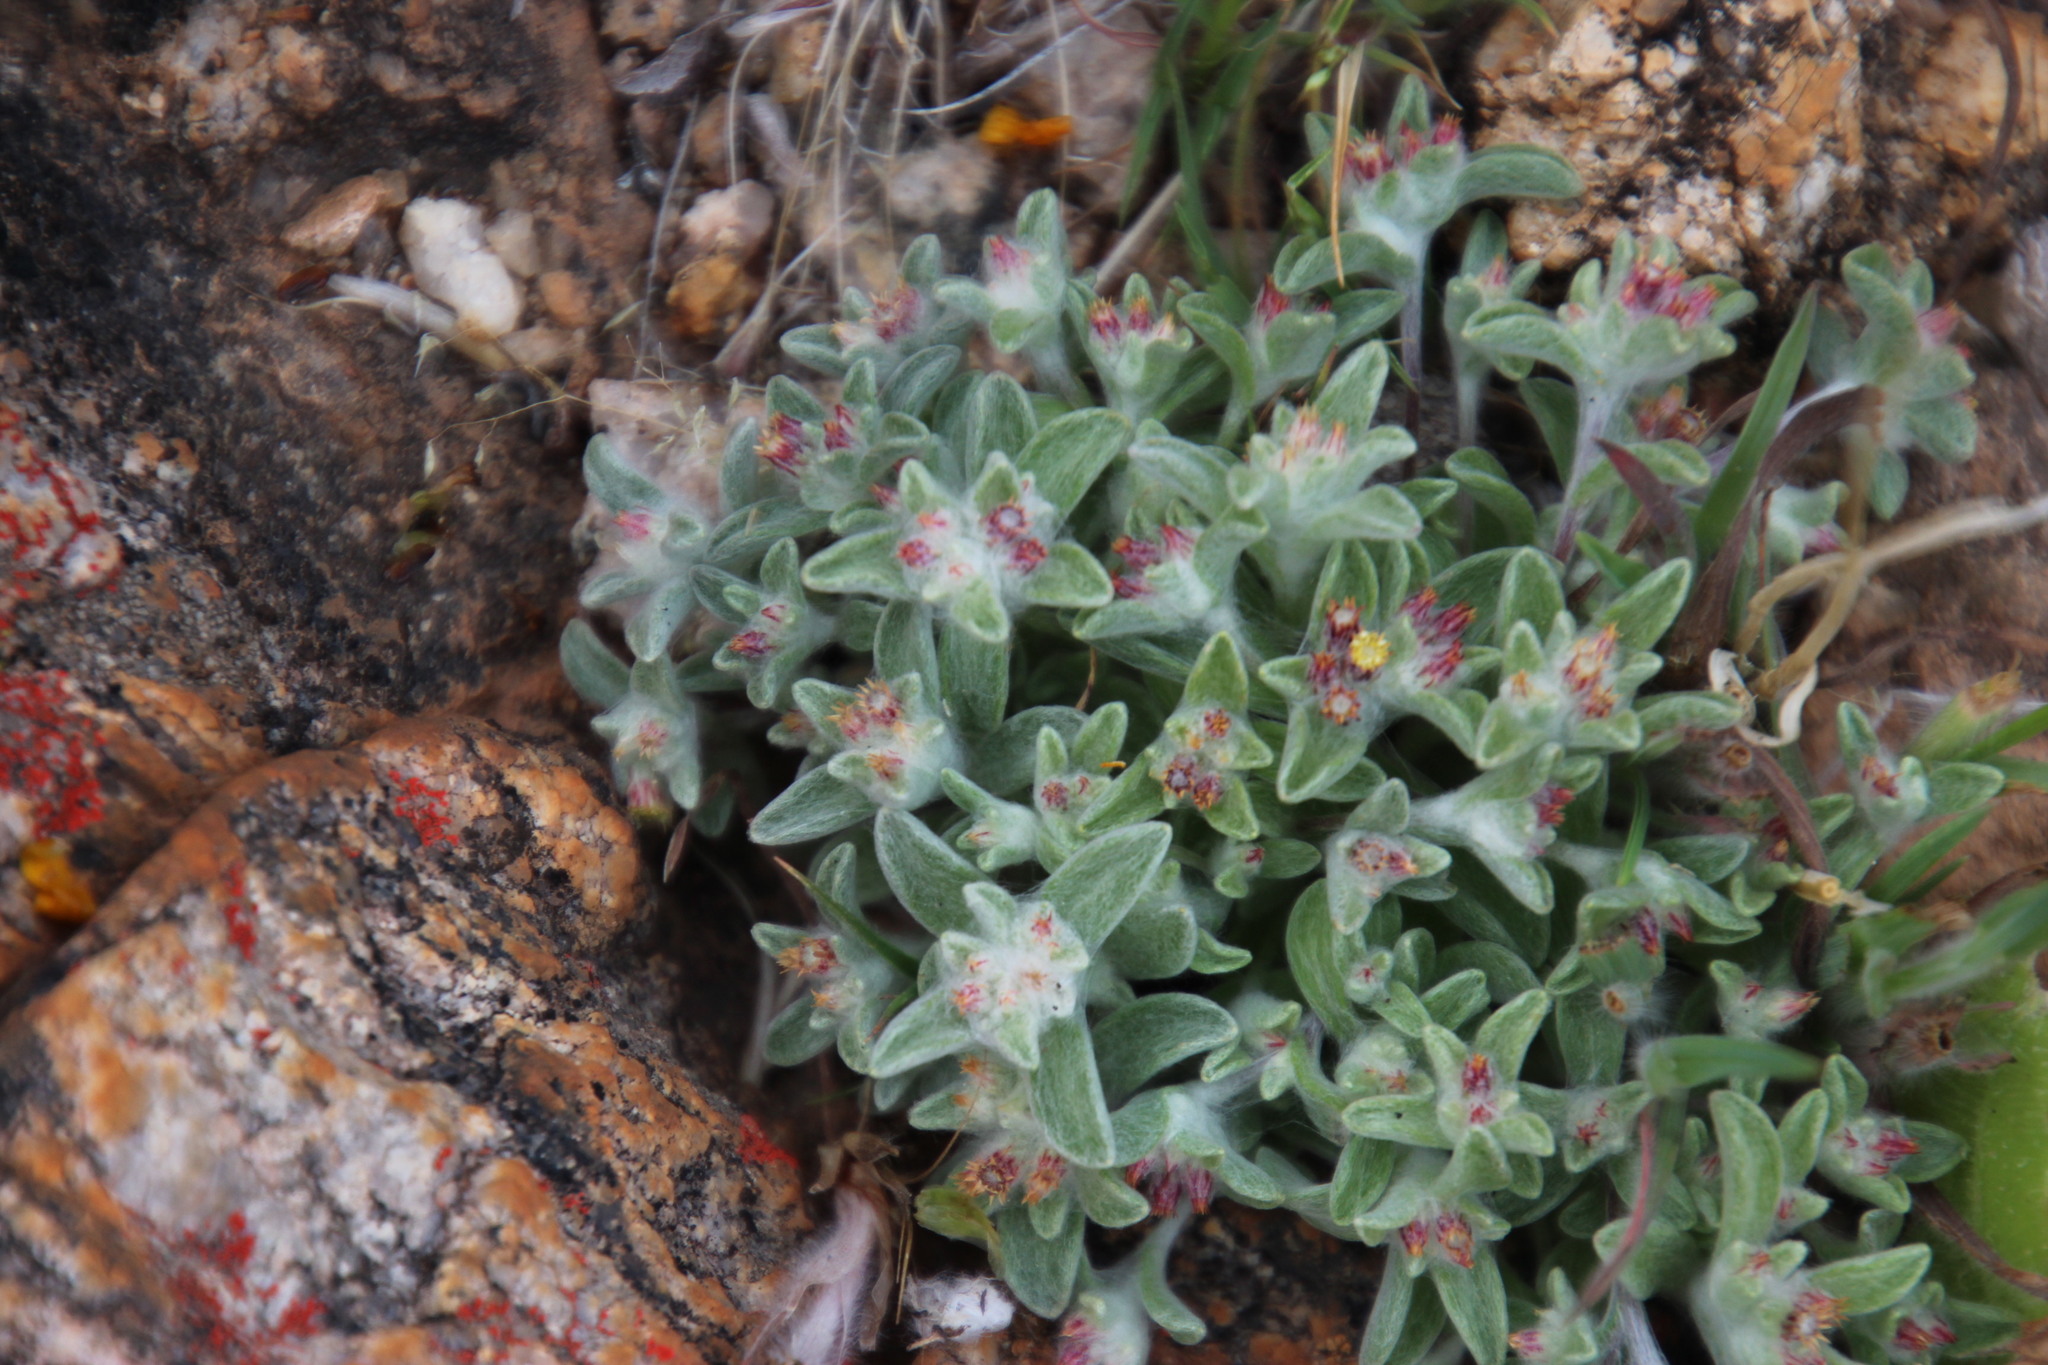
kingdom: Plantae
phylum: Tracheophyta
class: Magnoliopsida
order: Asterales
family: Asteraceae
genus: Helichrysum
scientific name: Helichrysum tinctum
